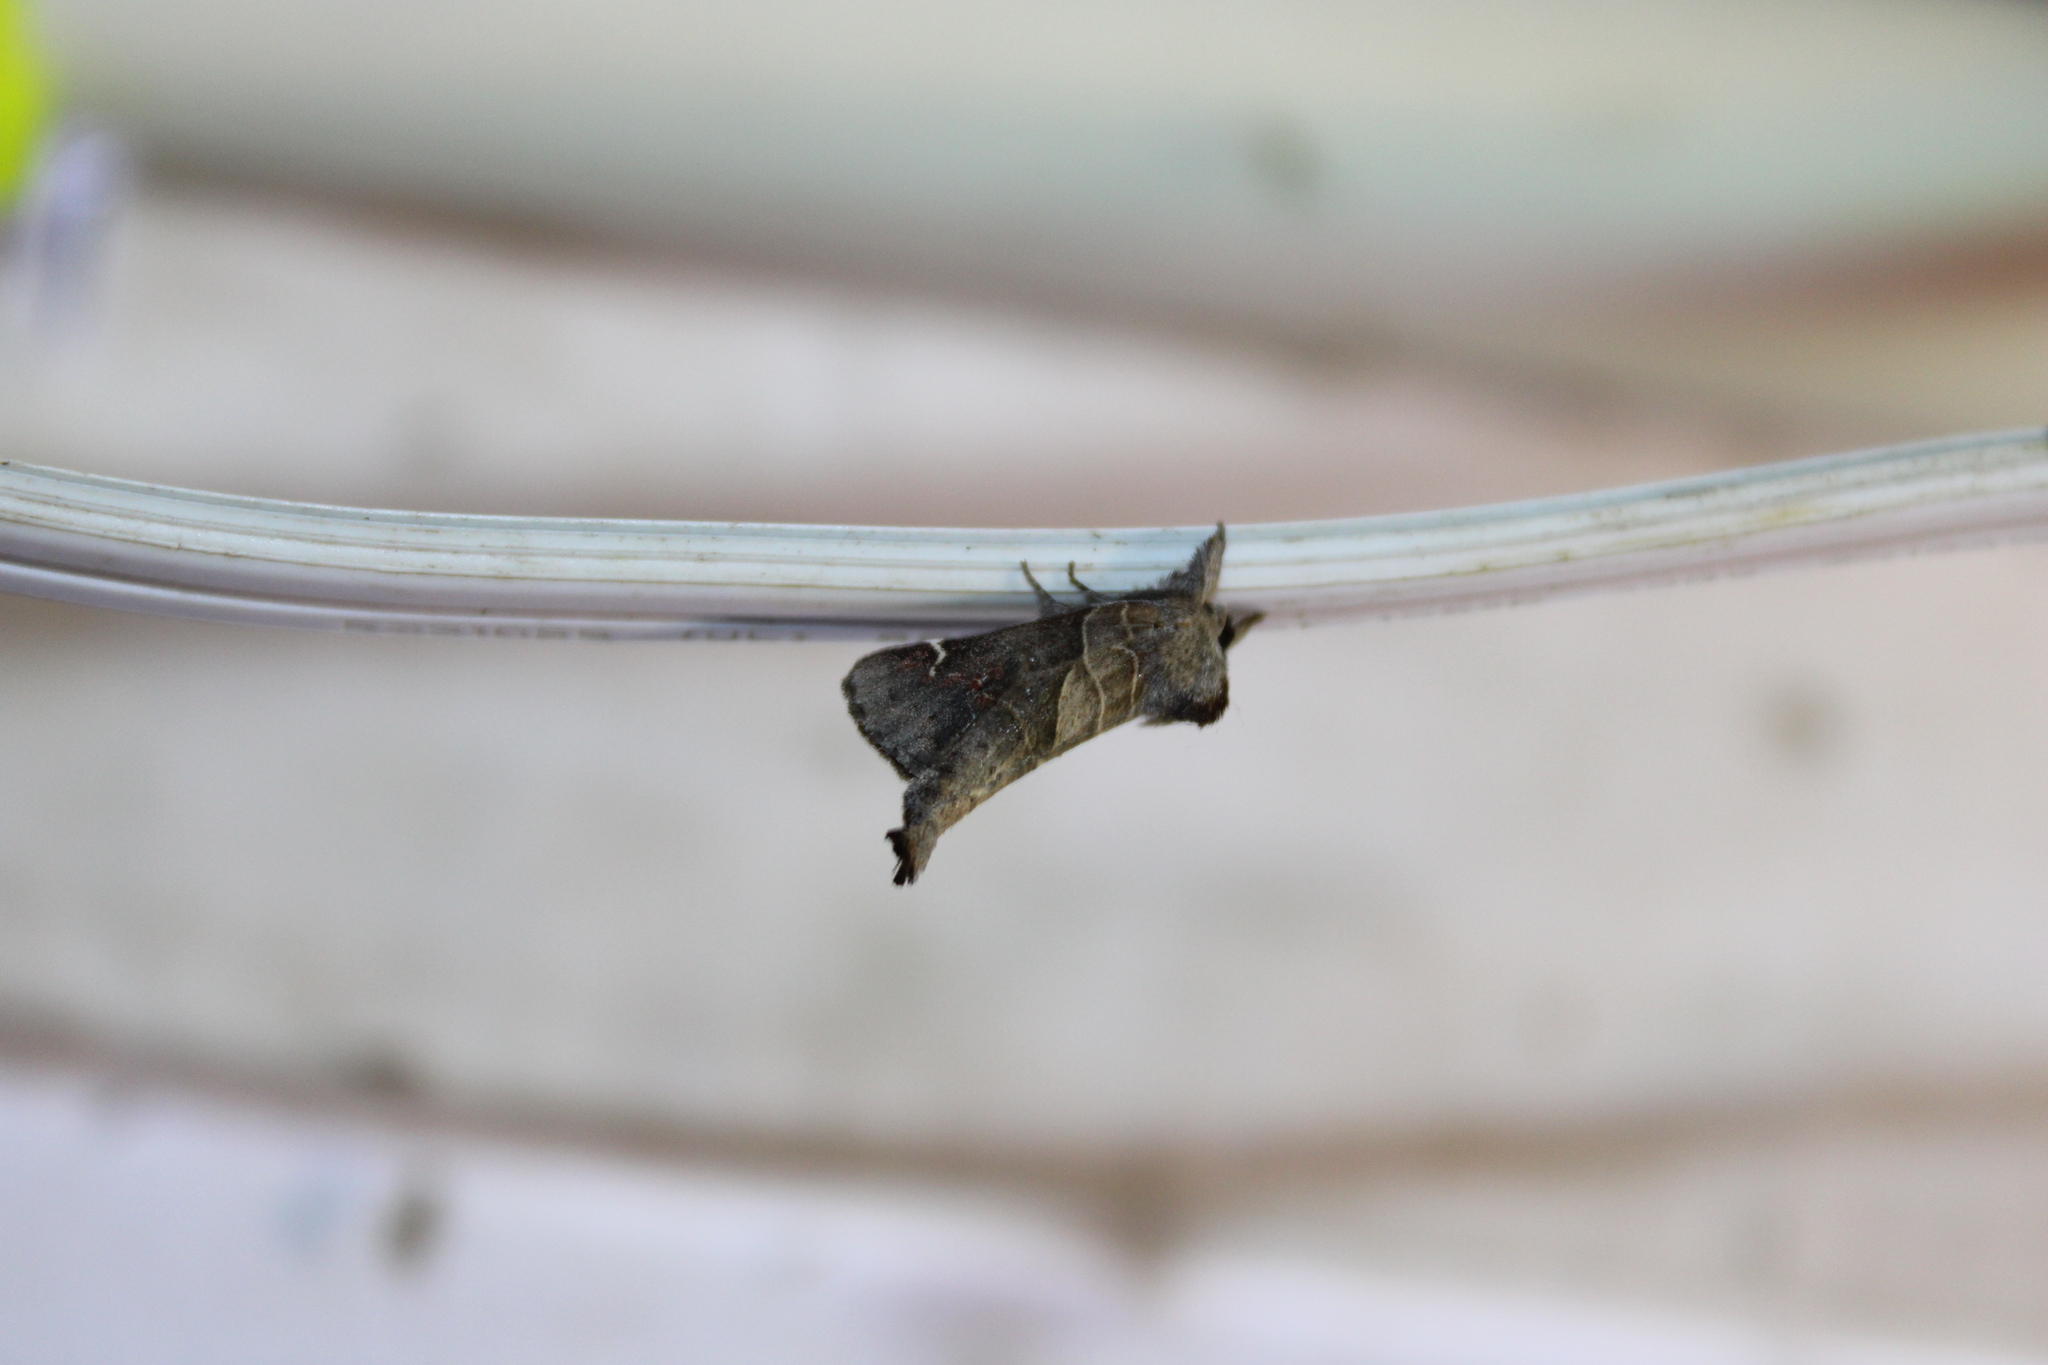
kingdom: Animalia
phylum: Arthropoda
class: Insecta
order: Lepidoptera
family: Notodontidae
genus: Clostera
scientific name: Clostera apicalis
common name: Apical prominent
